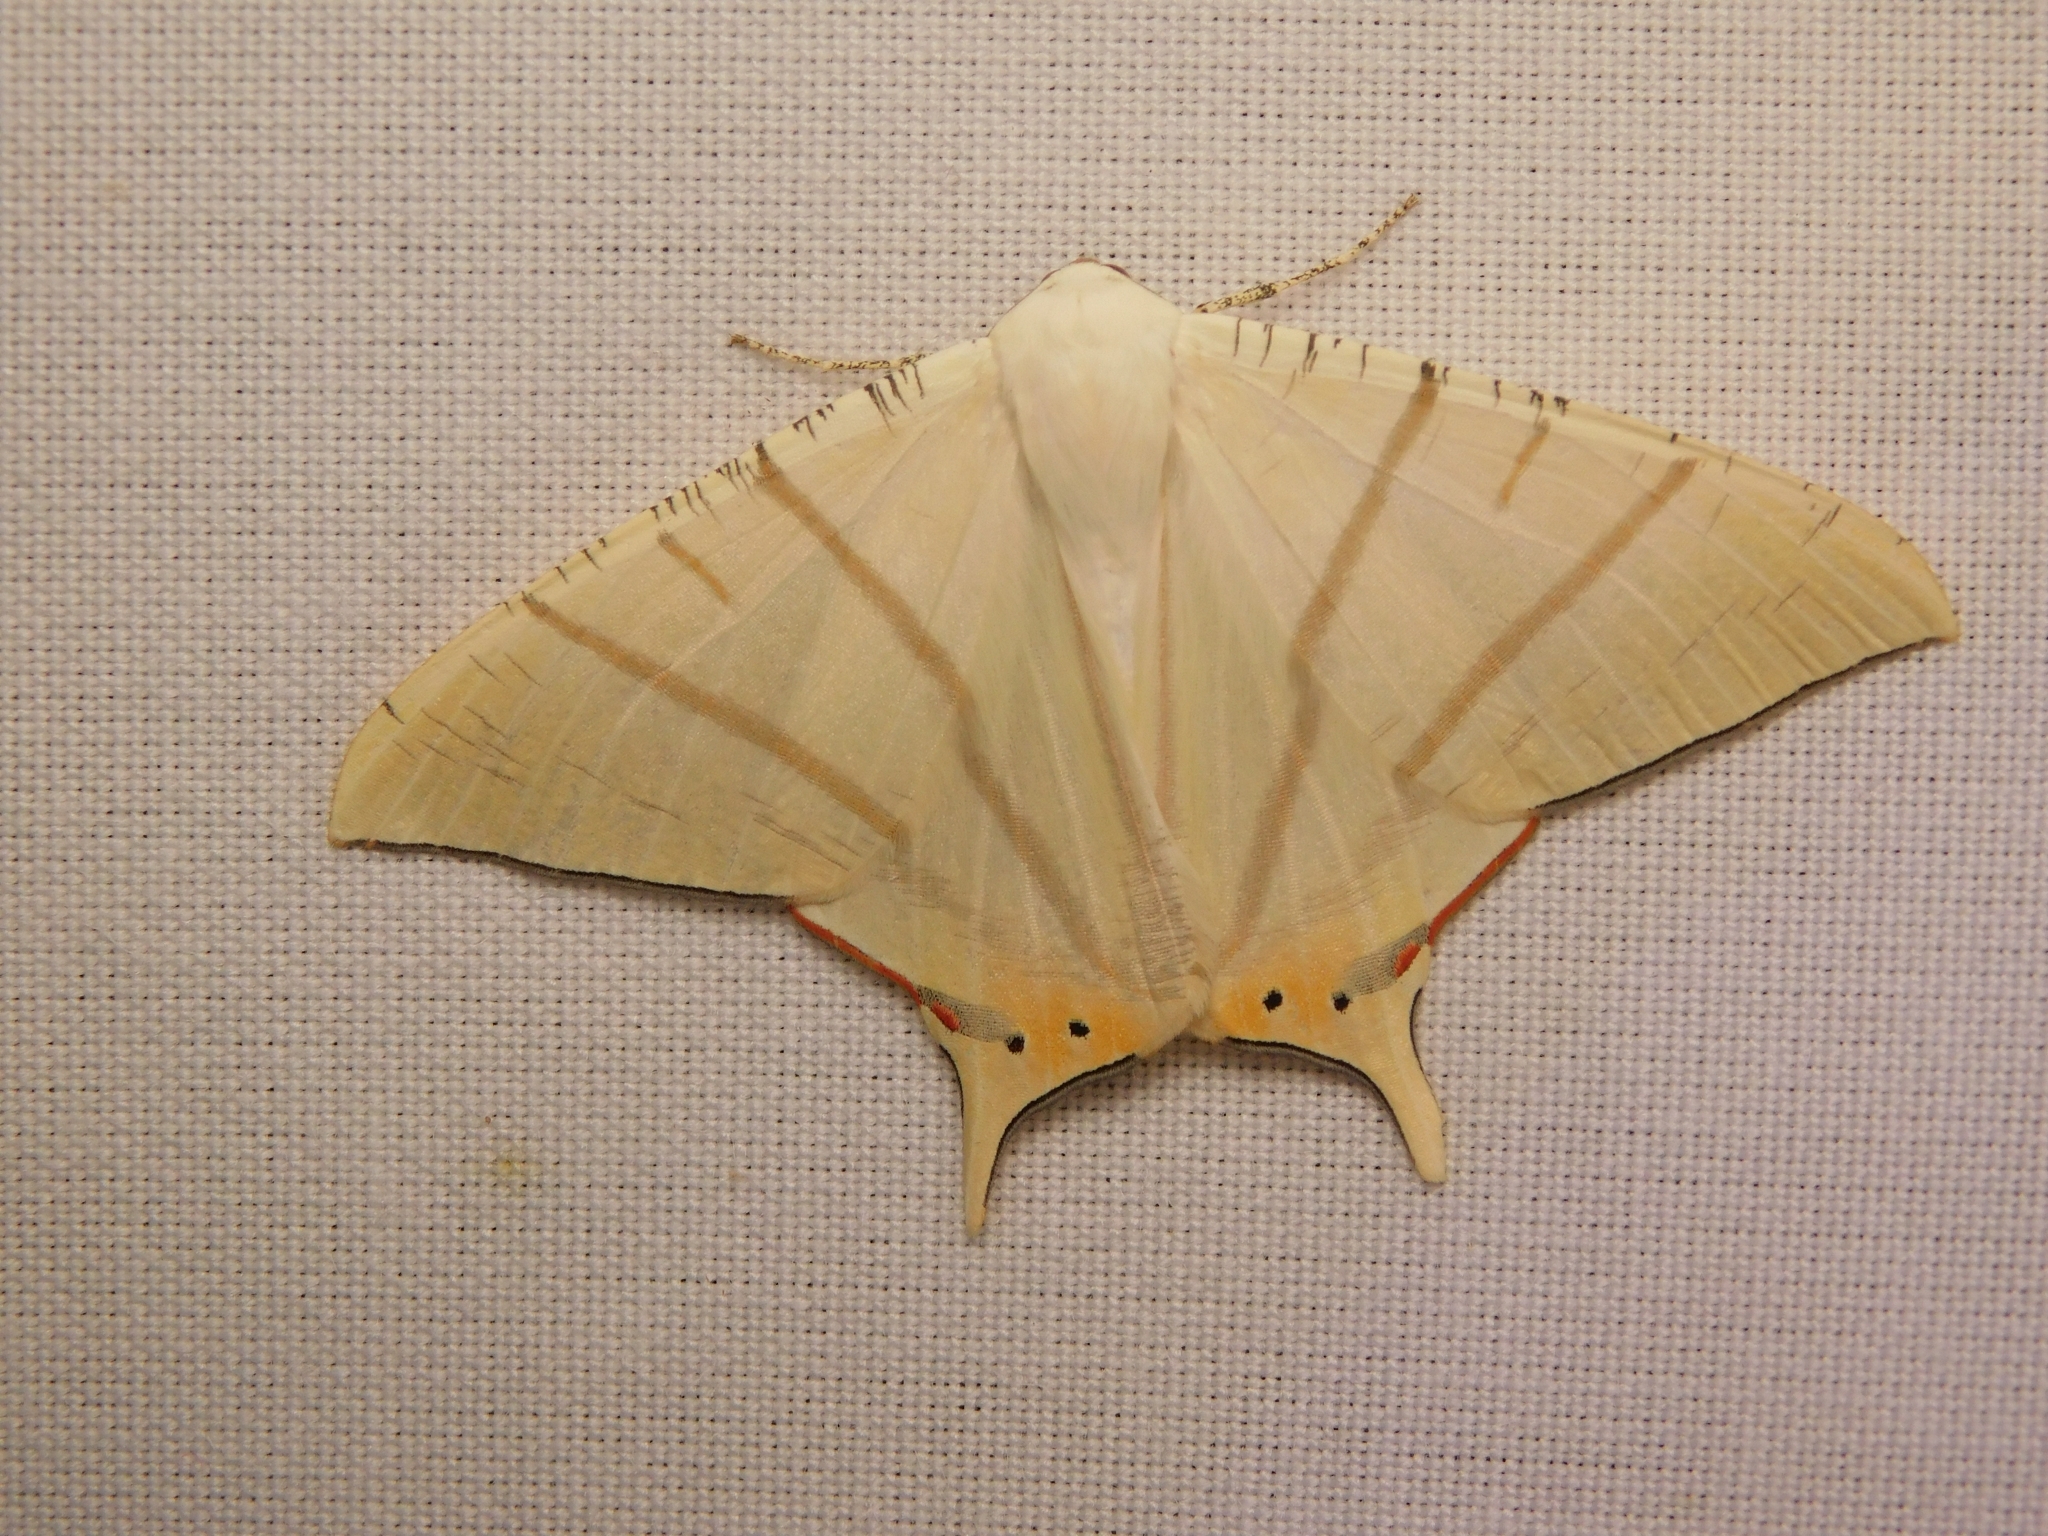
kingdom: Animalia
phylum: Arthropoda
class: Insecta
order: Lepidoptera
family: Geometridae
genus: Ourapteryx
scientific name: Ourapteryx marginata
